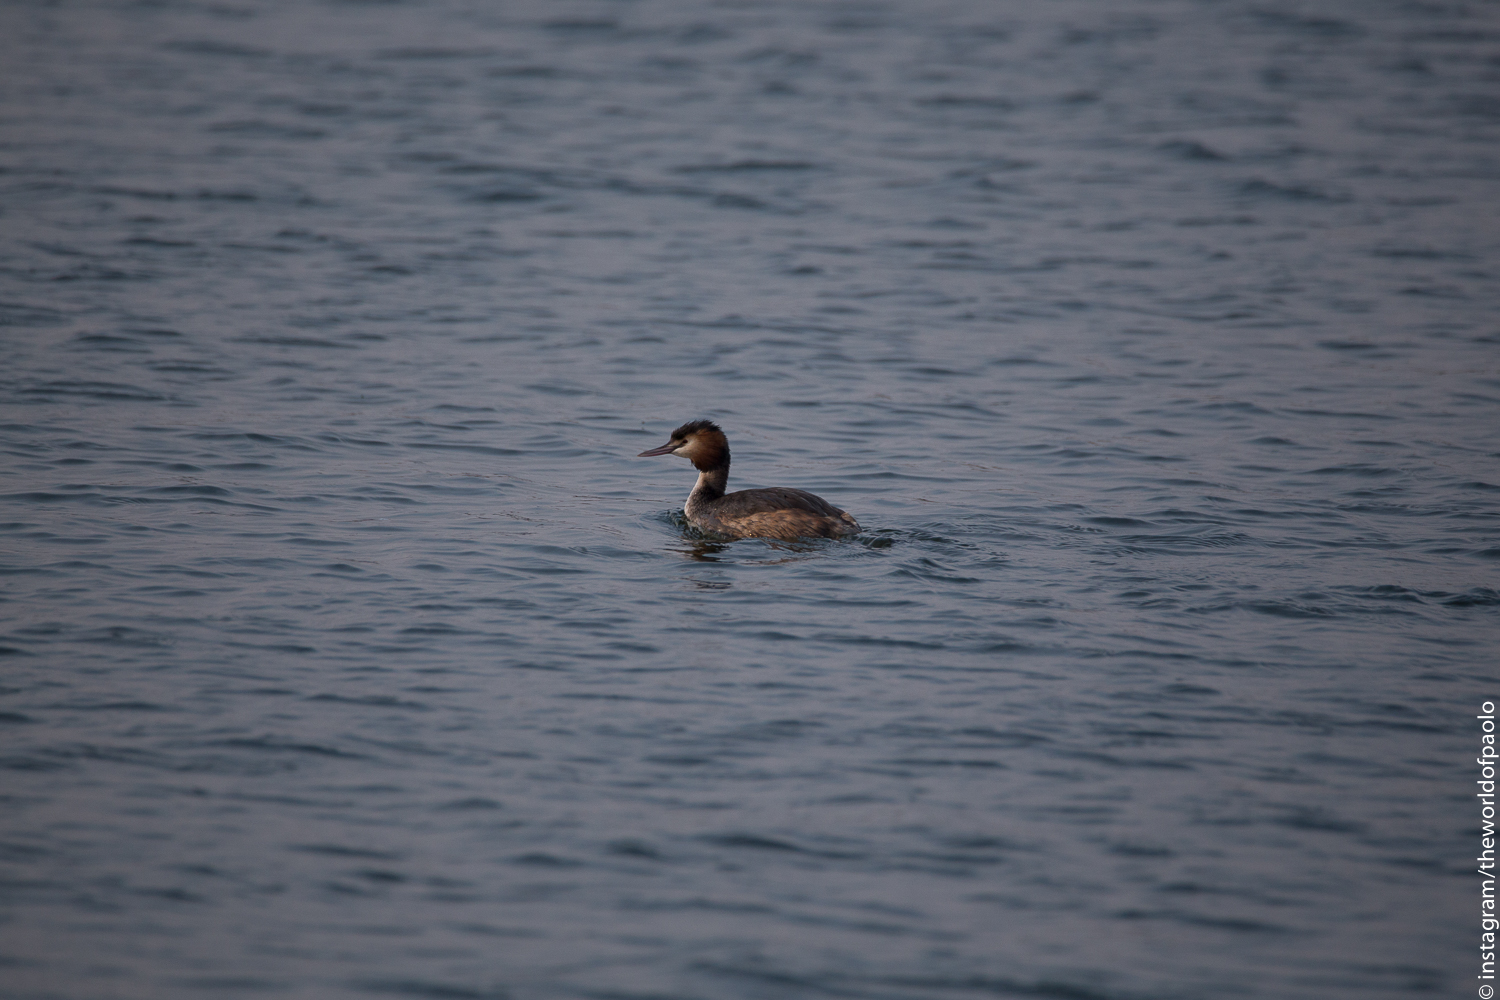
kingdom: Animalia
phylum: Chordata
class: Aves
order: Podicipediformes
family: Podicipedidae
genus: Podiceps
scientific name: Podiceps cristatus
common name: Great crested grebe
